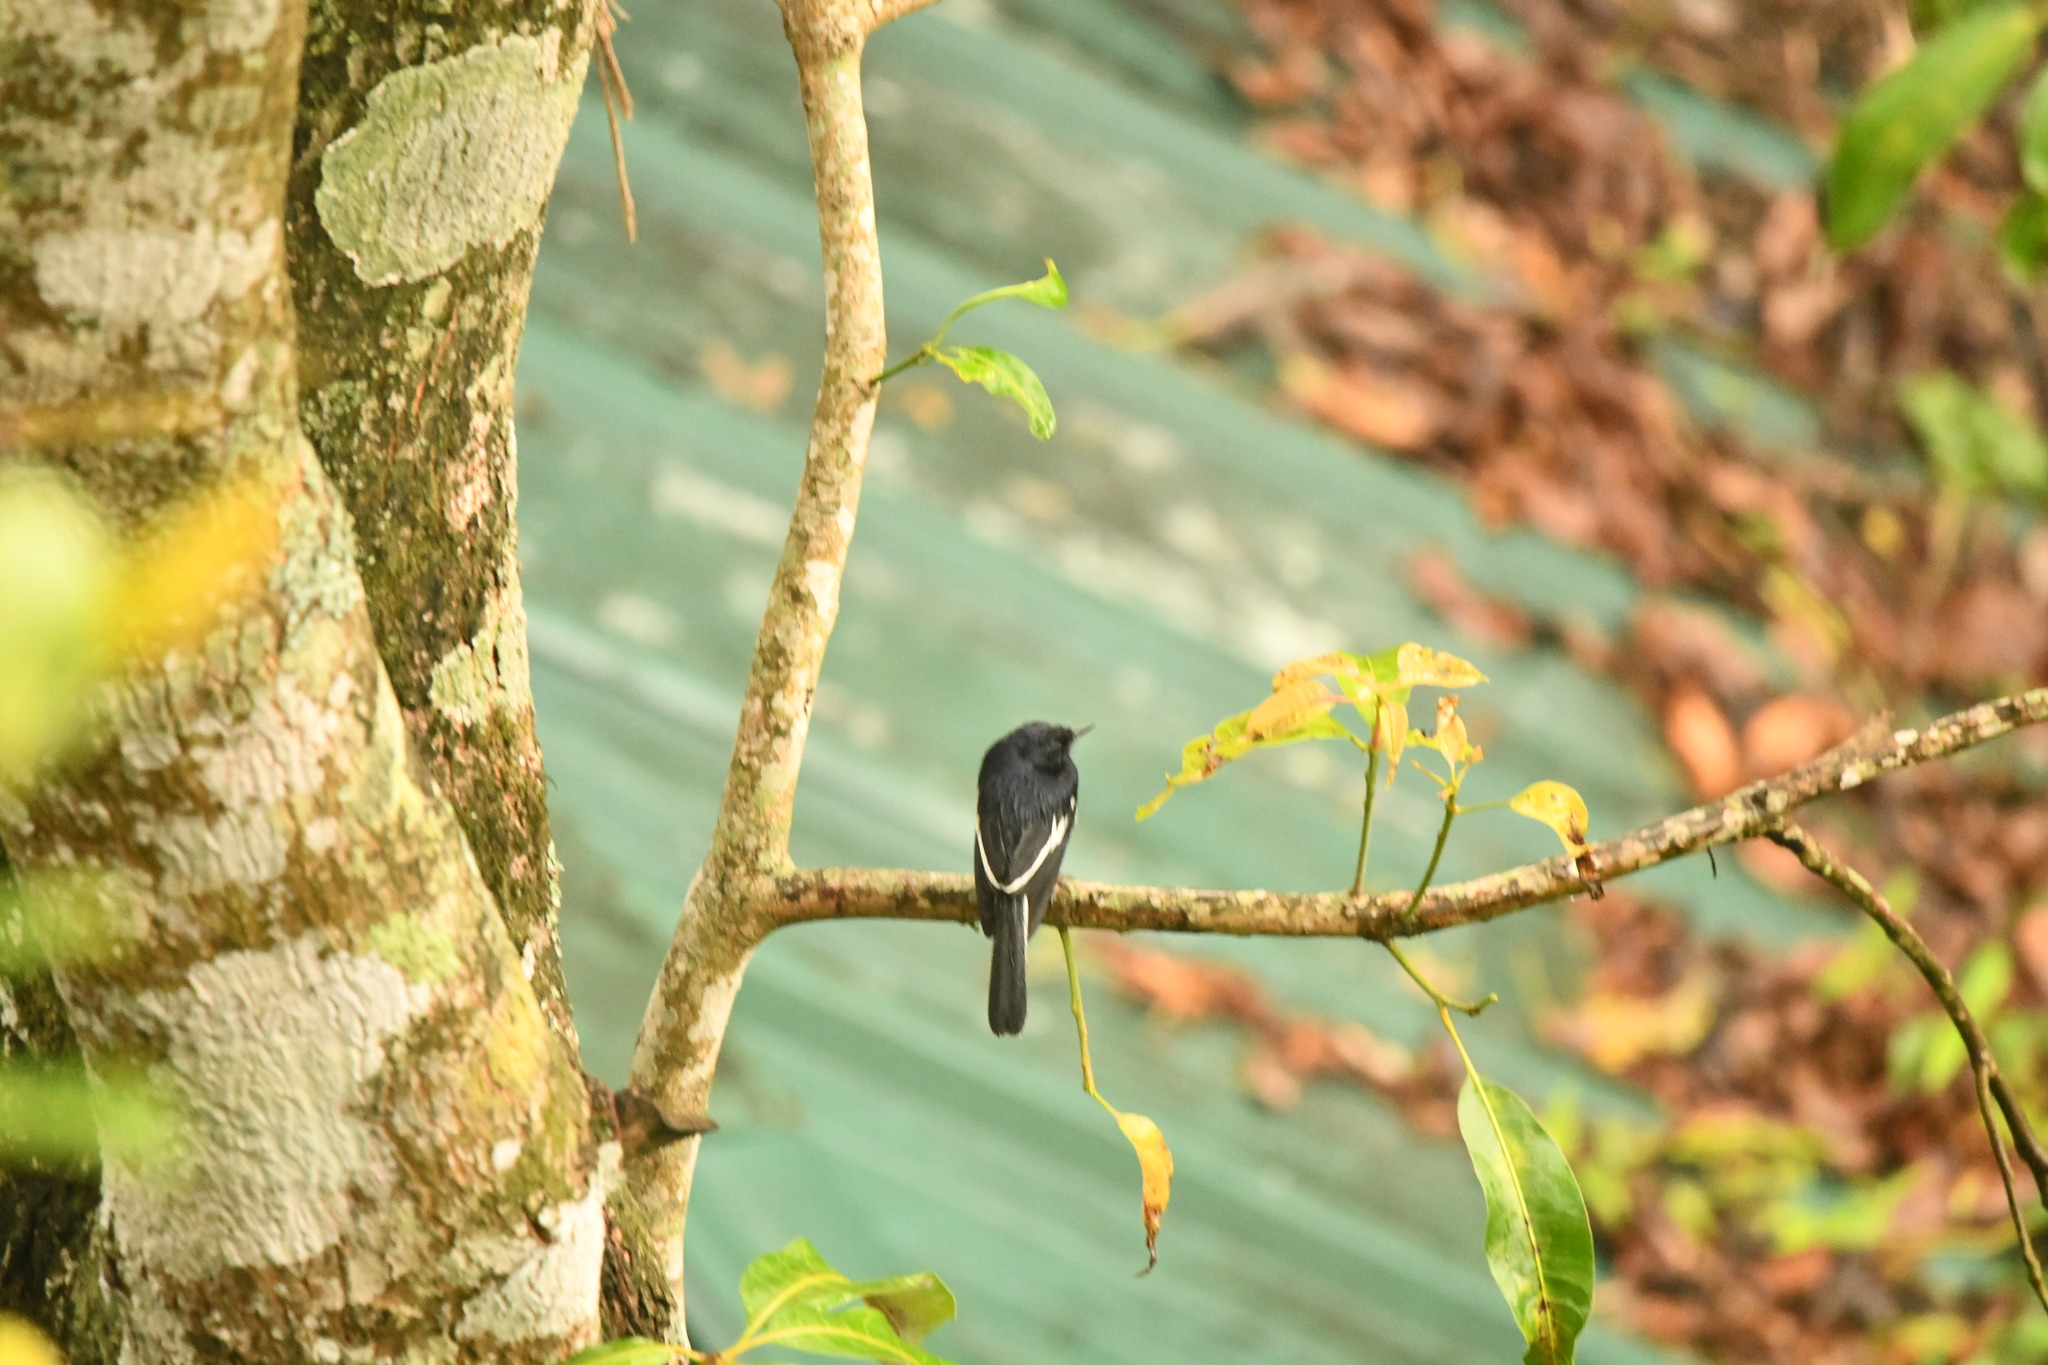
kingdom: Animalia
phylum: Chordata
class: Aves
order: Passeriformes
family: Muscicapidae
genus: Copsychus
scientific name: Copsychus saularis
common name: Oriental magpie-robin
